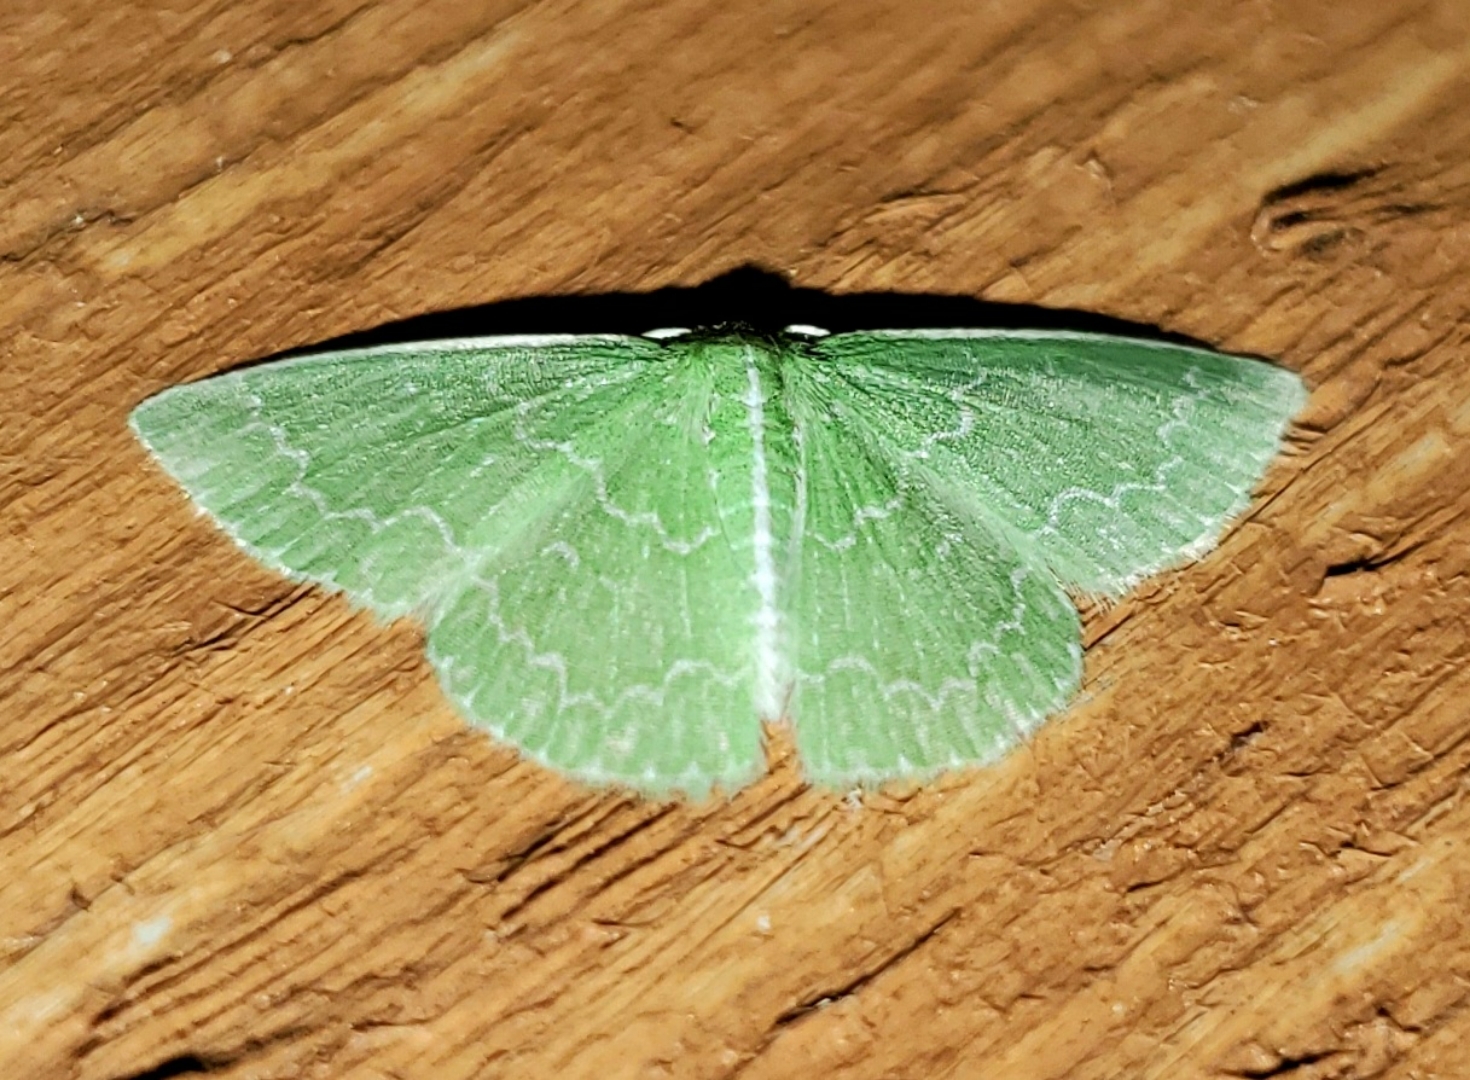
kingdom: Animalia
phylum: Arthropoda
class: Insecta
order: Lepidoptera
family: Geometridae
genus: Synchlora
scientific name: Synchlora frondaria
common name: Southern emerald
